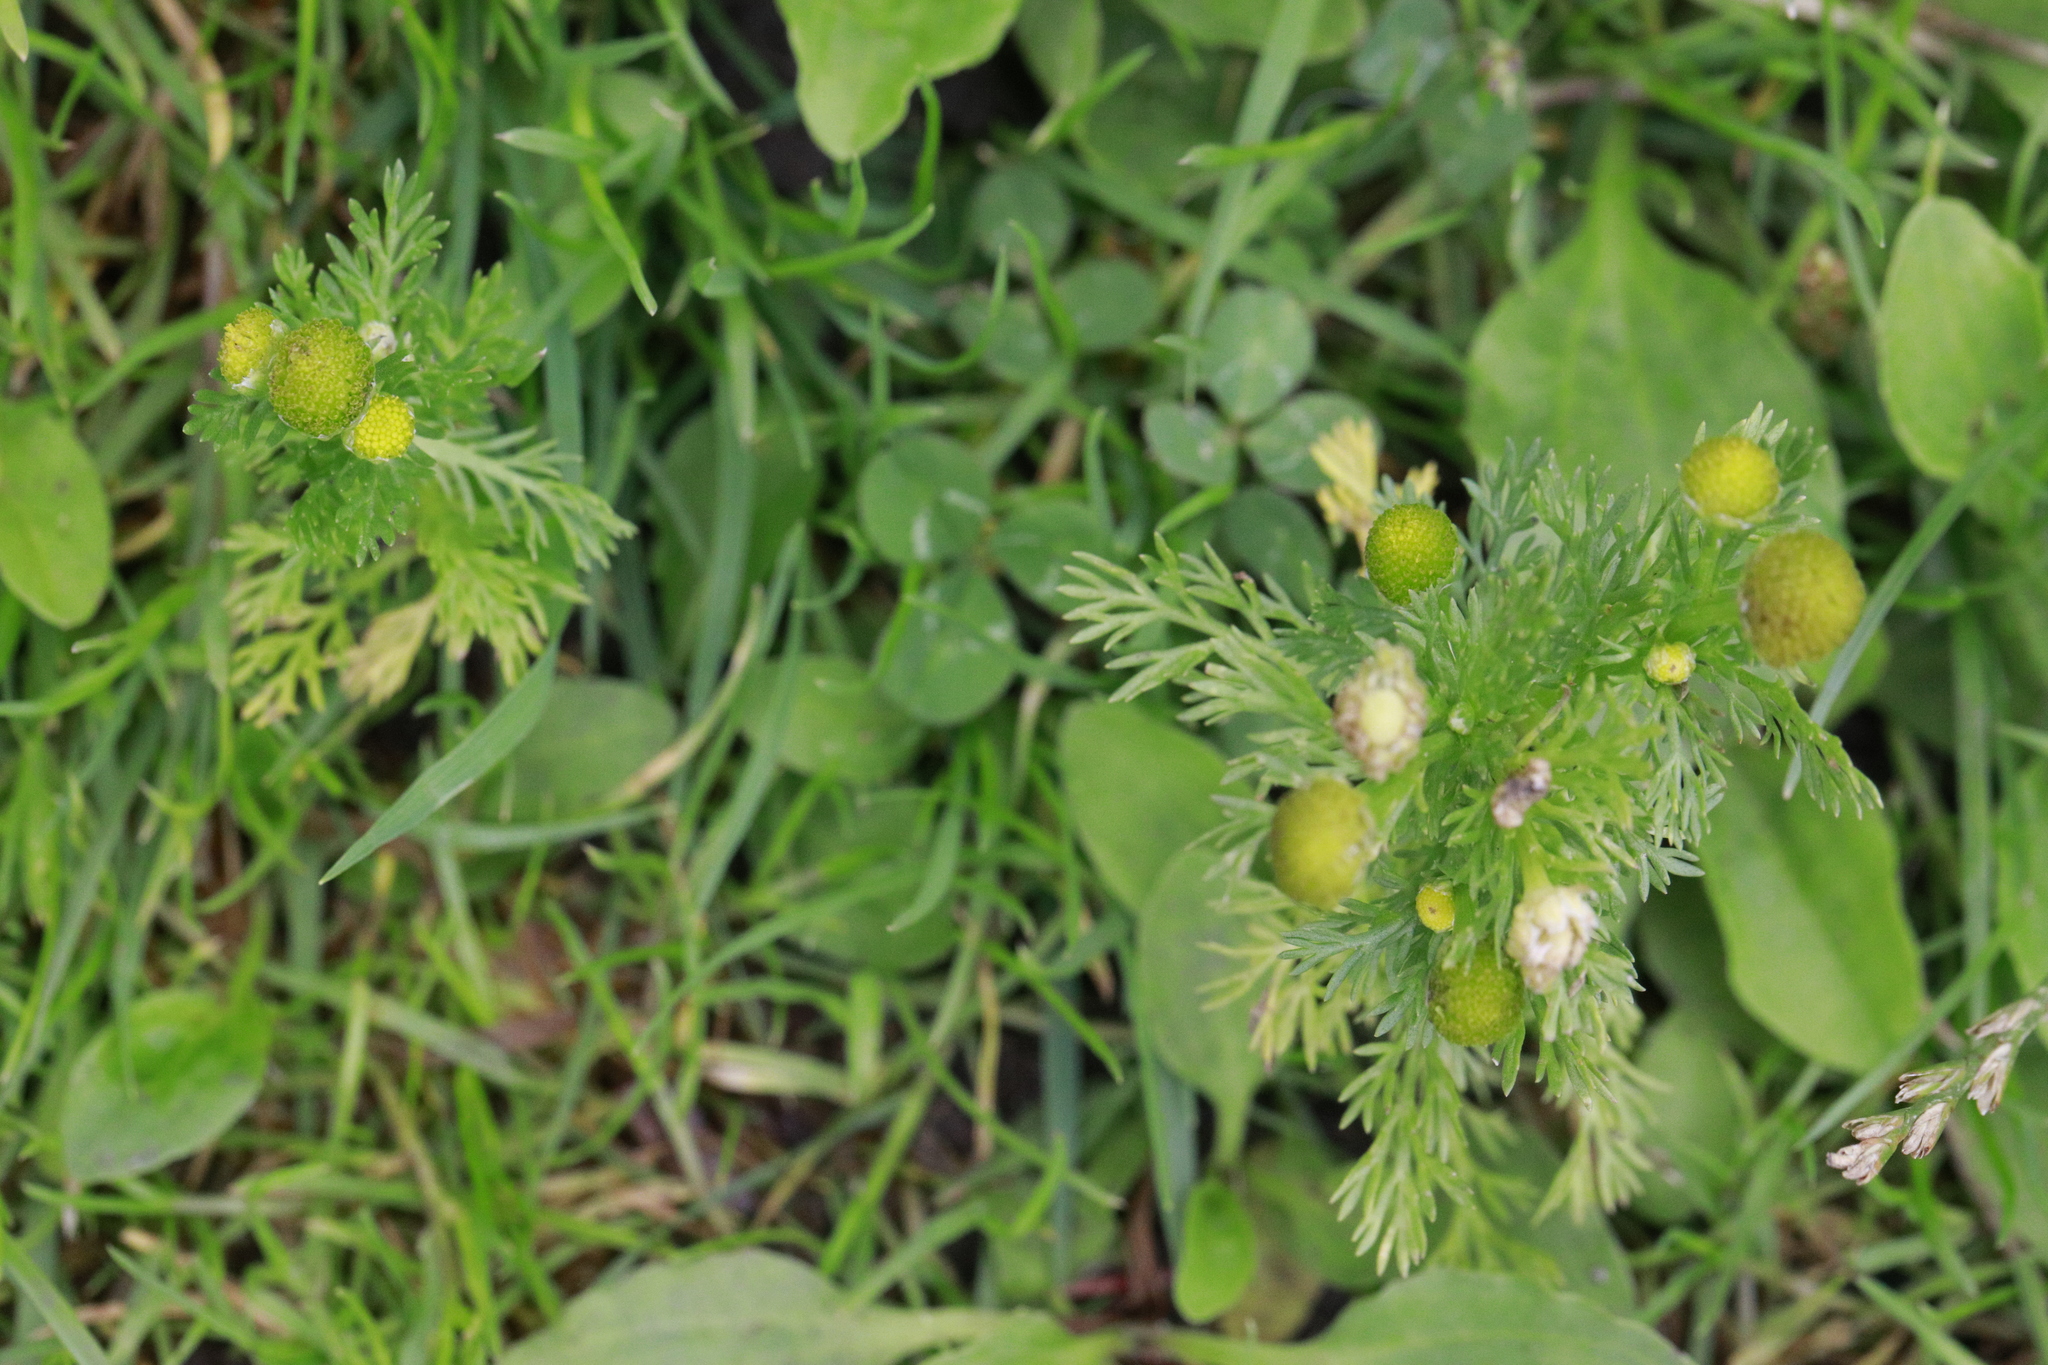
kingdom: Plantae
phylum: Tracheophyta
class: Magnoliopsida
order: Asterales
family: Asteraceae
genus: Matricaria
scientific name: Matricaria discoidea
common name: Disc mayweed
